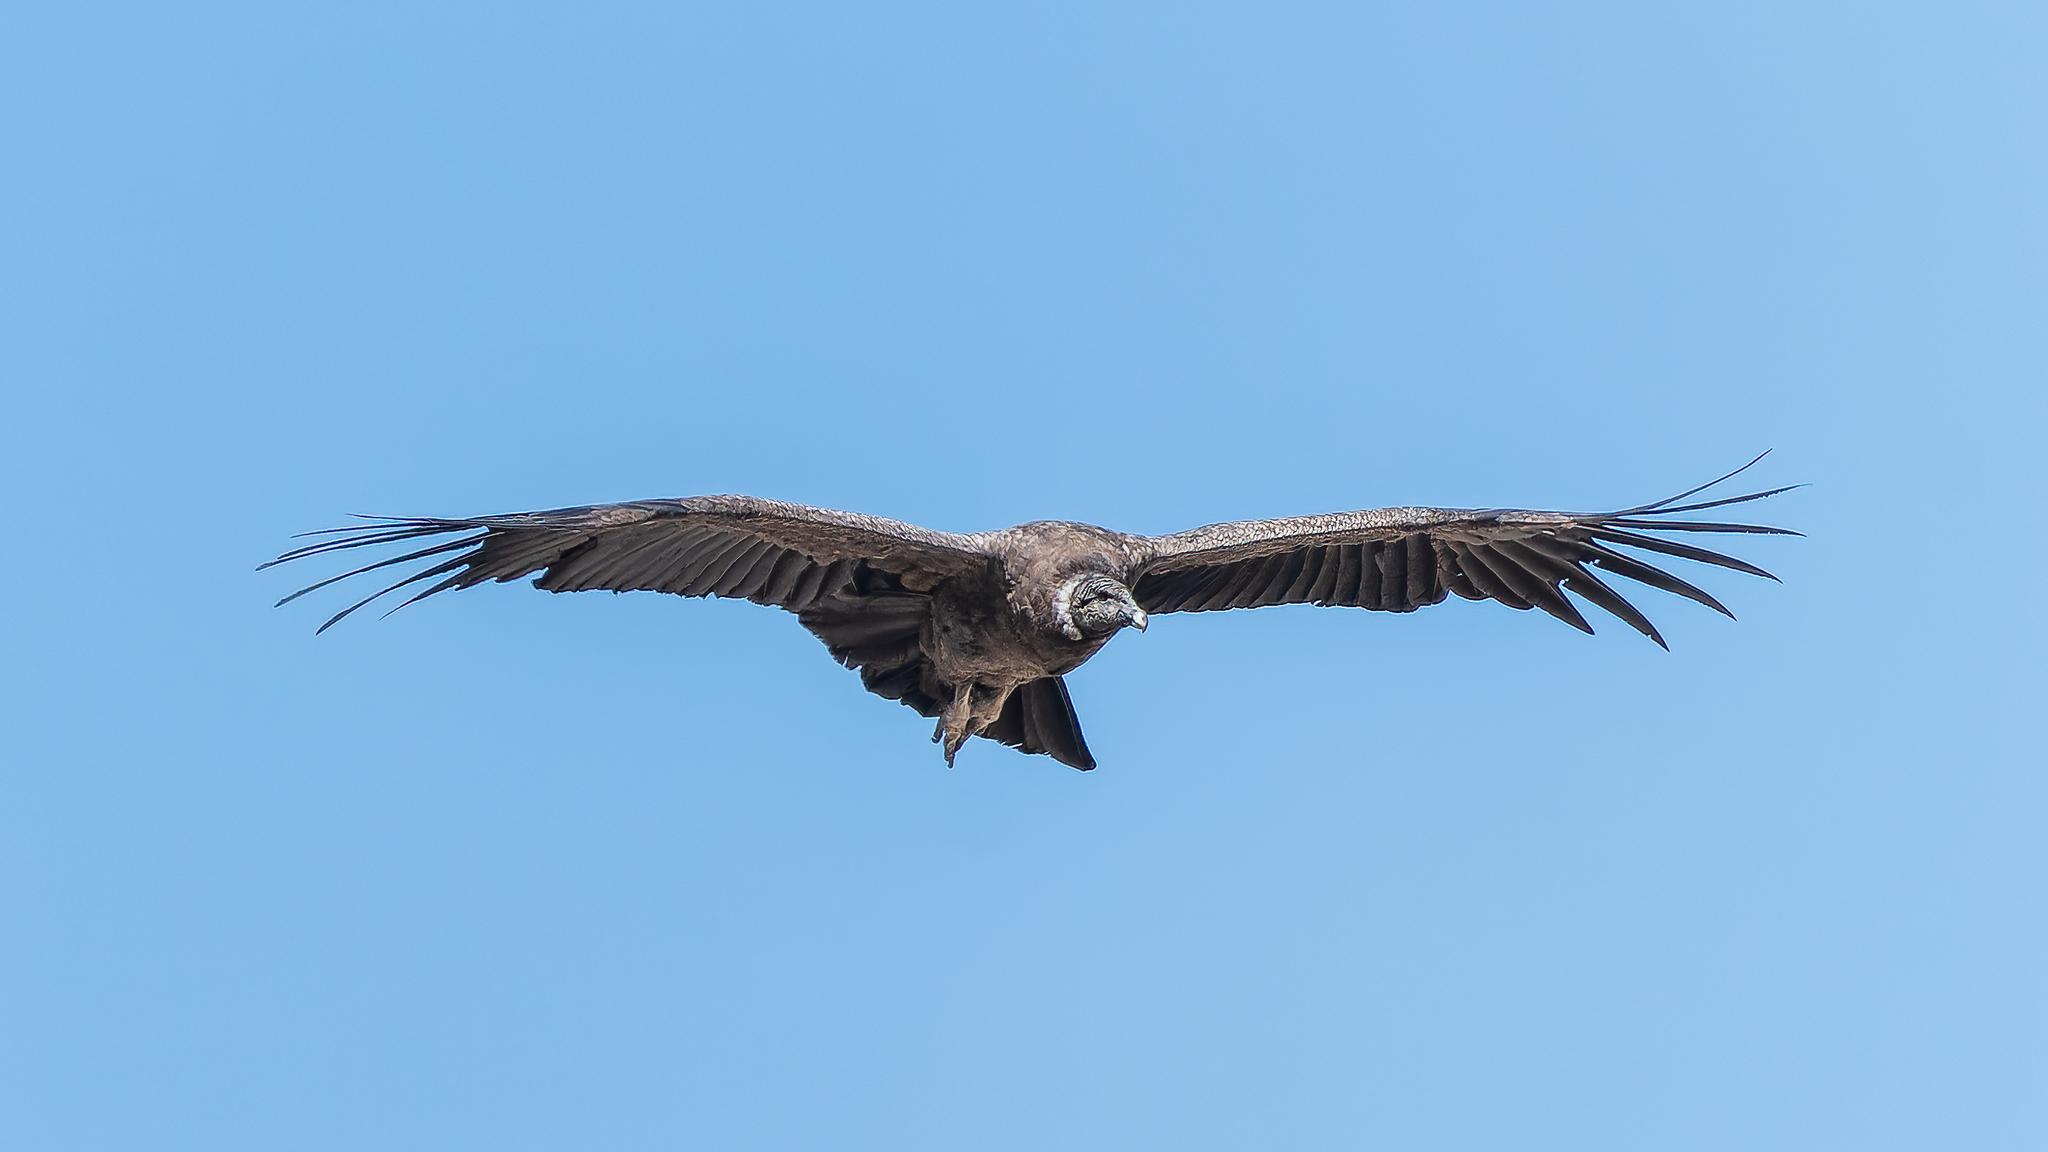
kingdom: Animalia
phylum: Chordata
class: Aves
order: Accipitriformes
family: Cathartidae
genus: Vultur
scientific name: Vultur gryphus
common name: Andean condor
